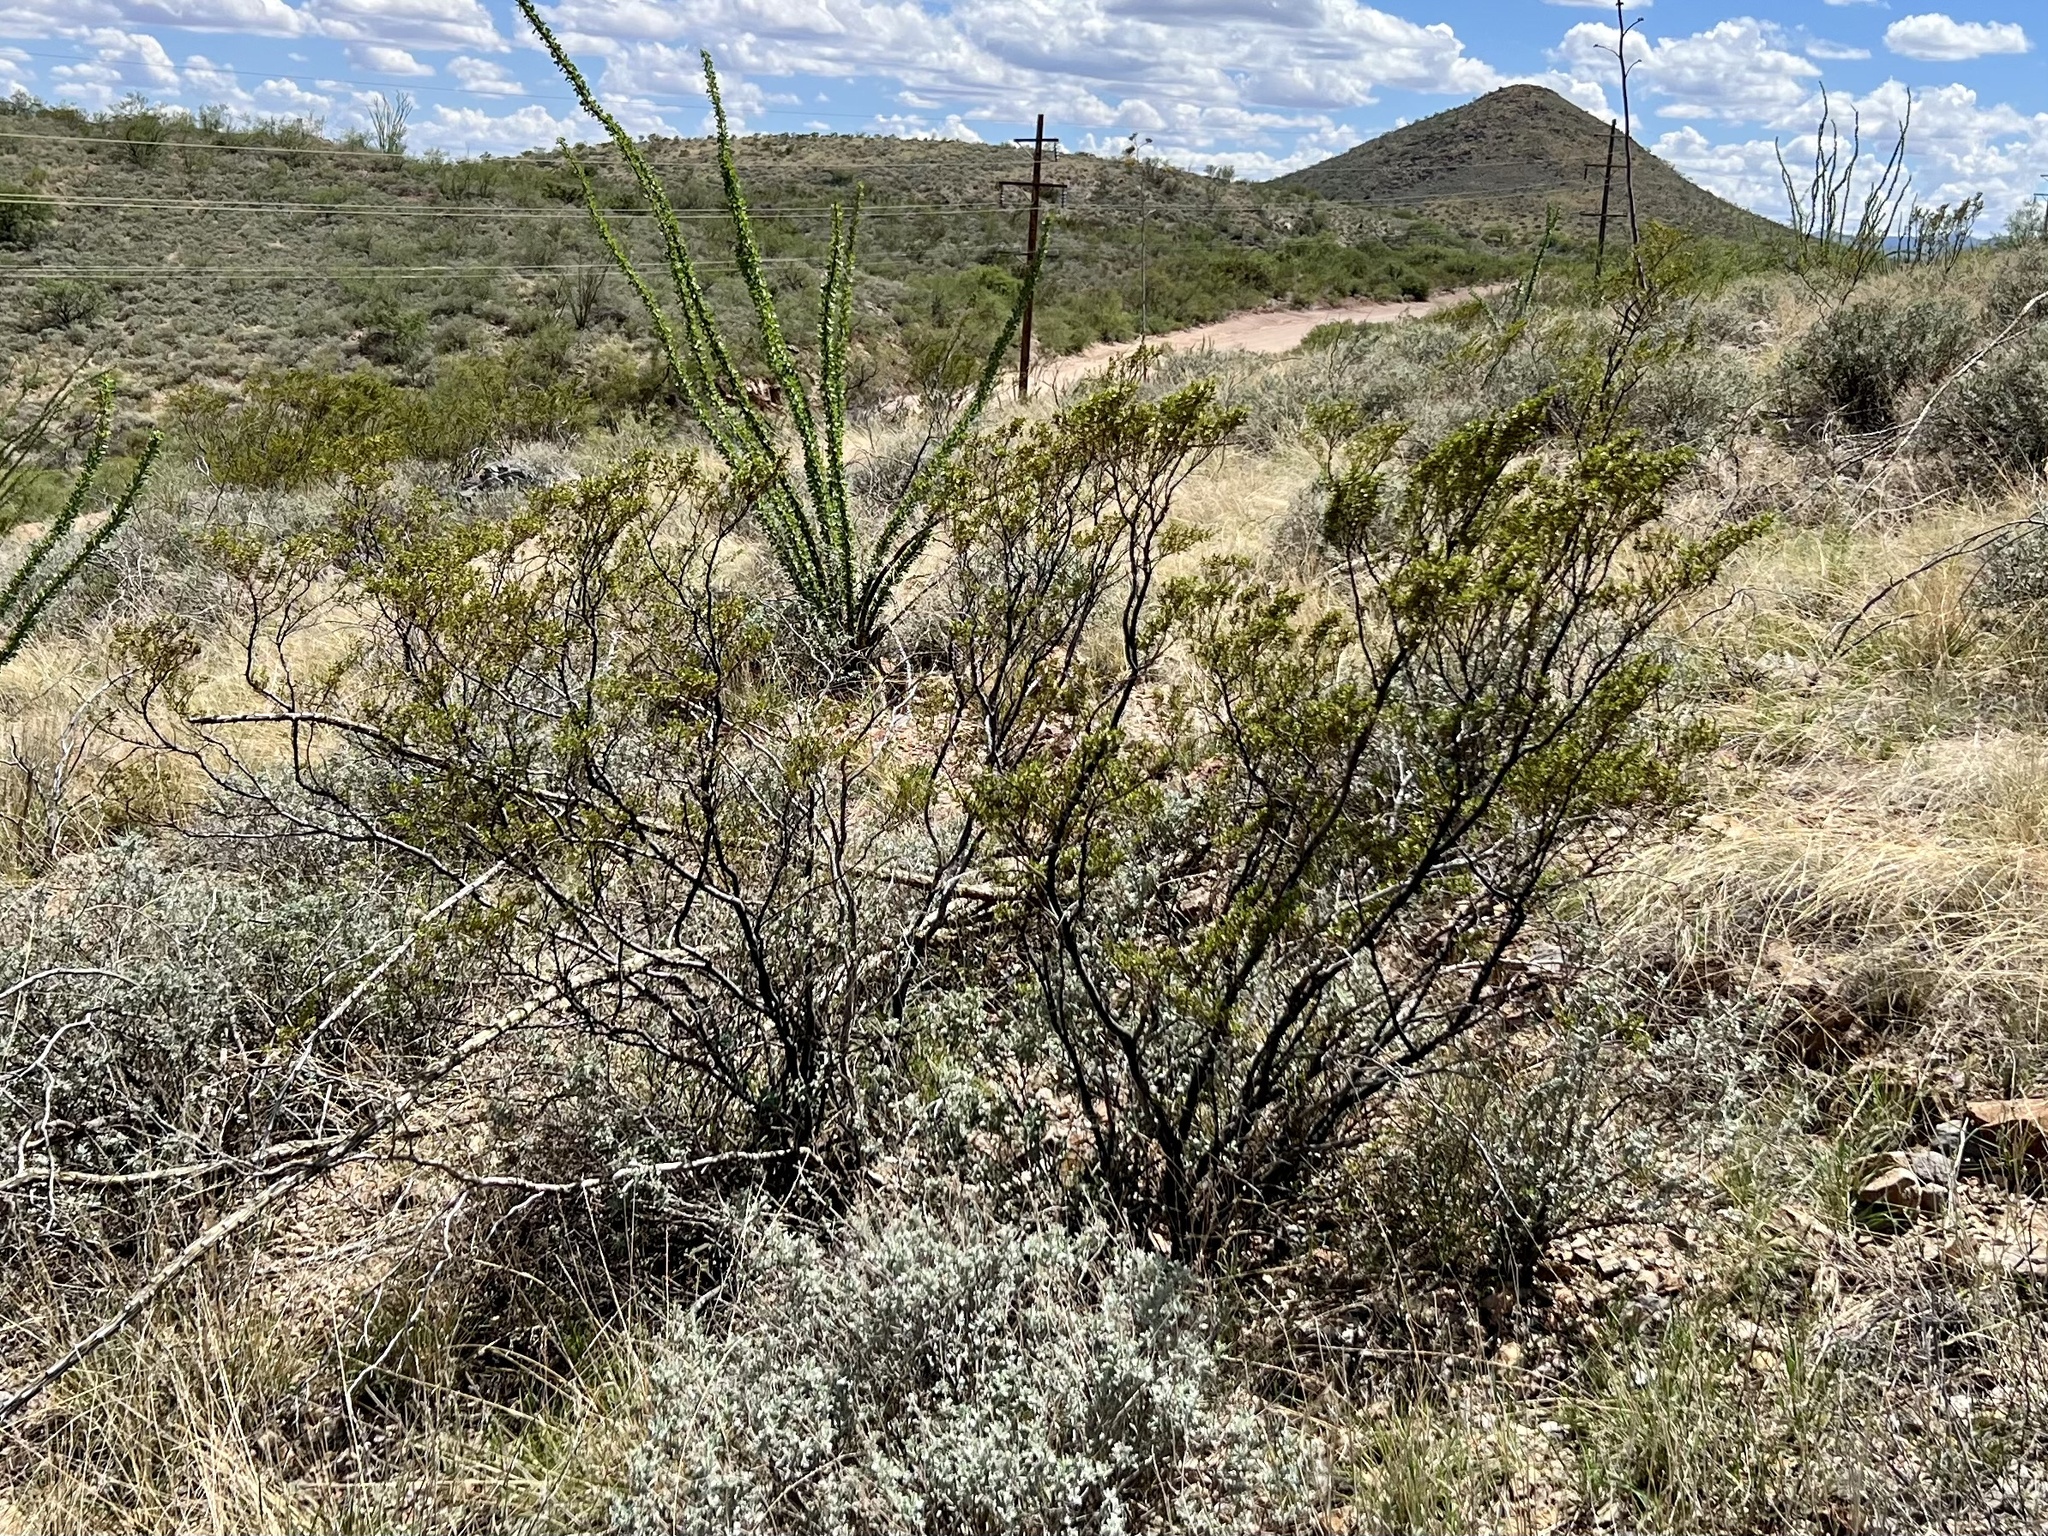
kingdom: Plantae
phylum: Tracheophyta
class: Magnoliopsida
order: Zygophyllales
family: Zygophyllaceae
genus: Larrea
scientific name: Larrea tridentata
